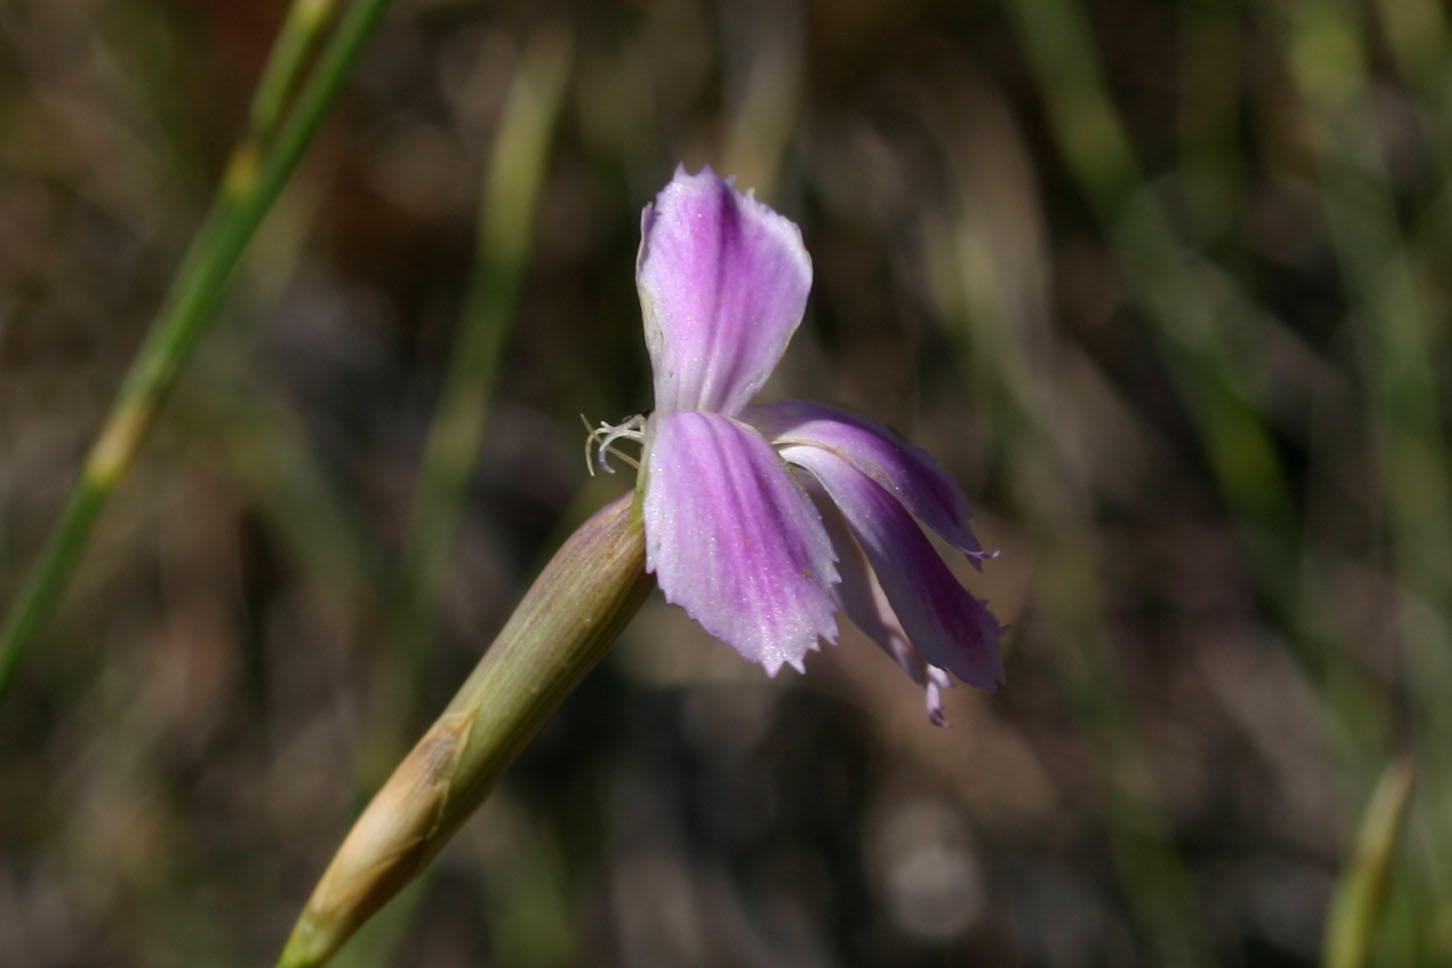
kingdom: Plantae
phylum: Tracheophyta
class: Magnoliopsida
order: Caryophyllales
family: Caryophyllaceae
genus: Dianthus
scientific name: Dianthus thunbergii
